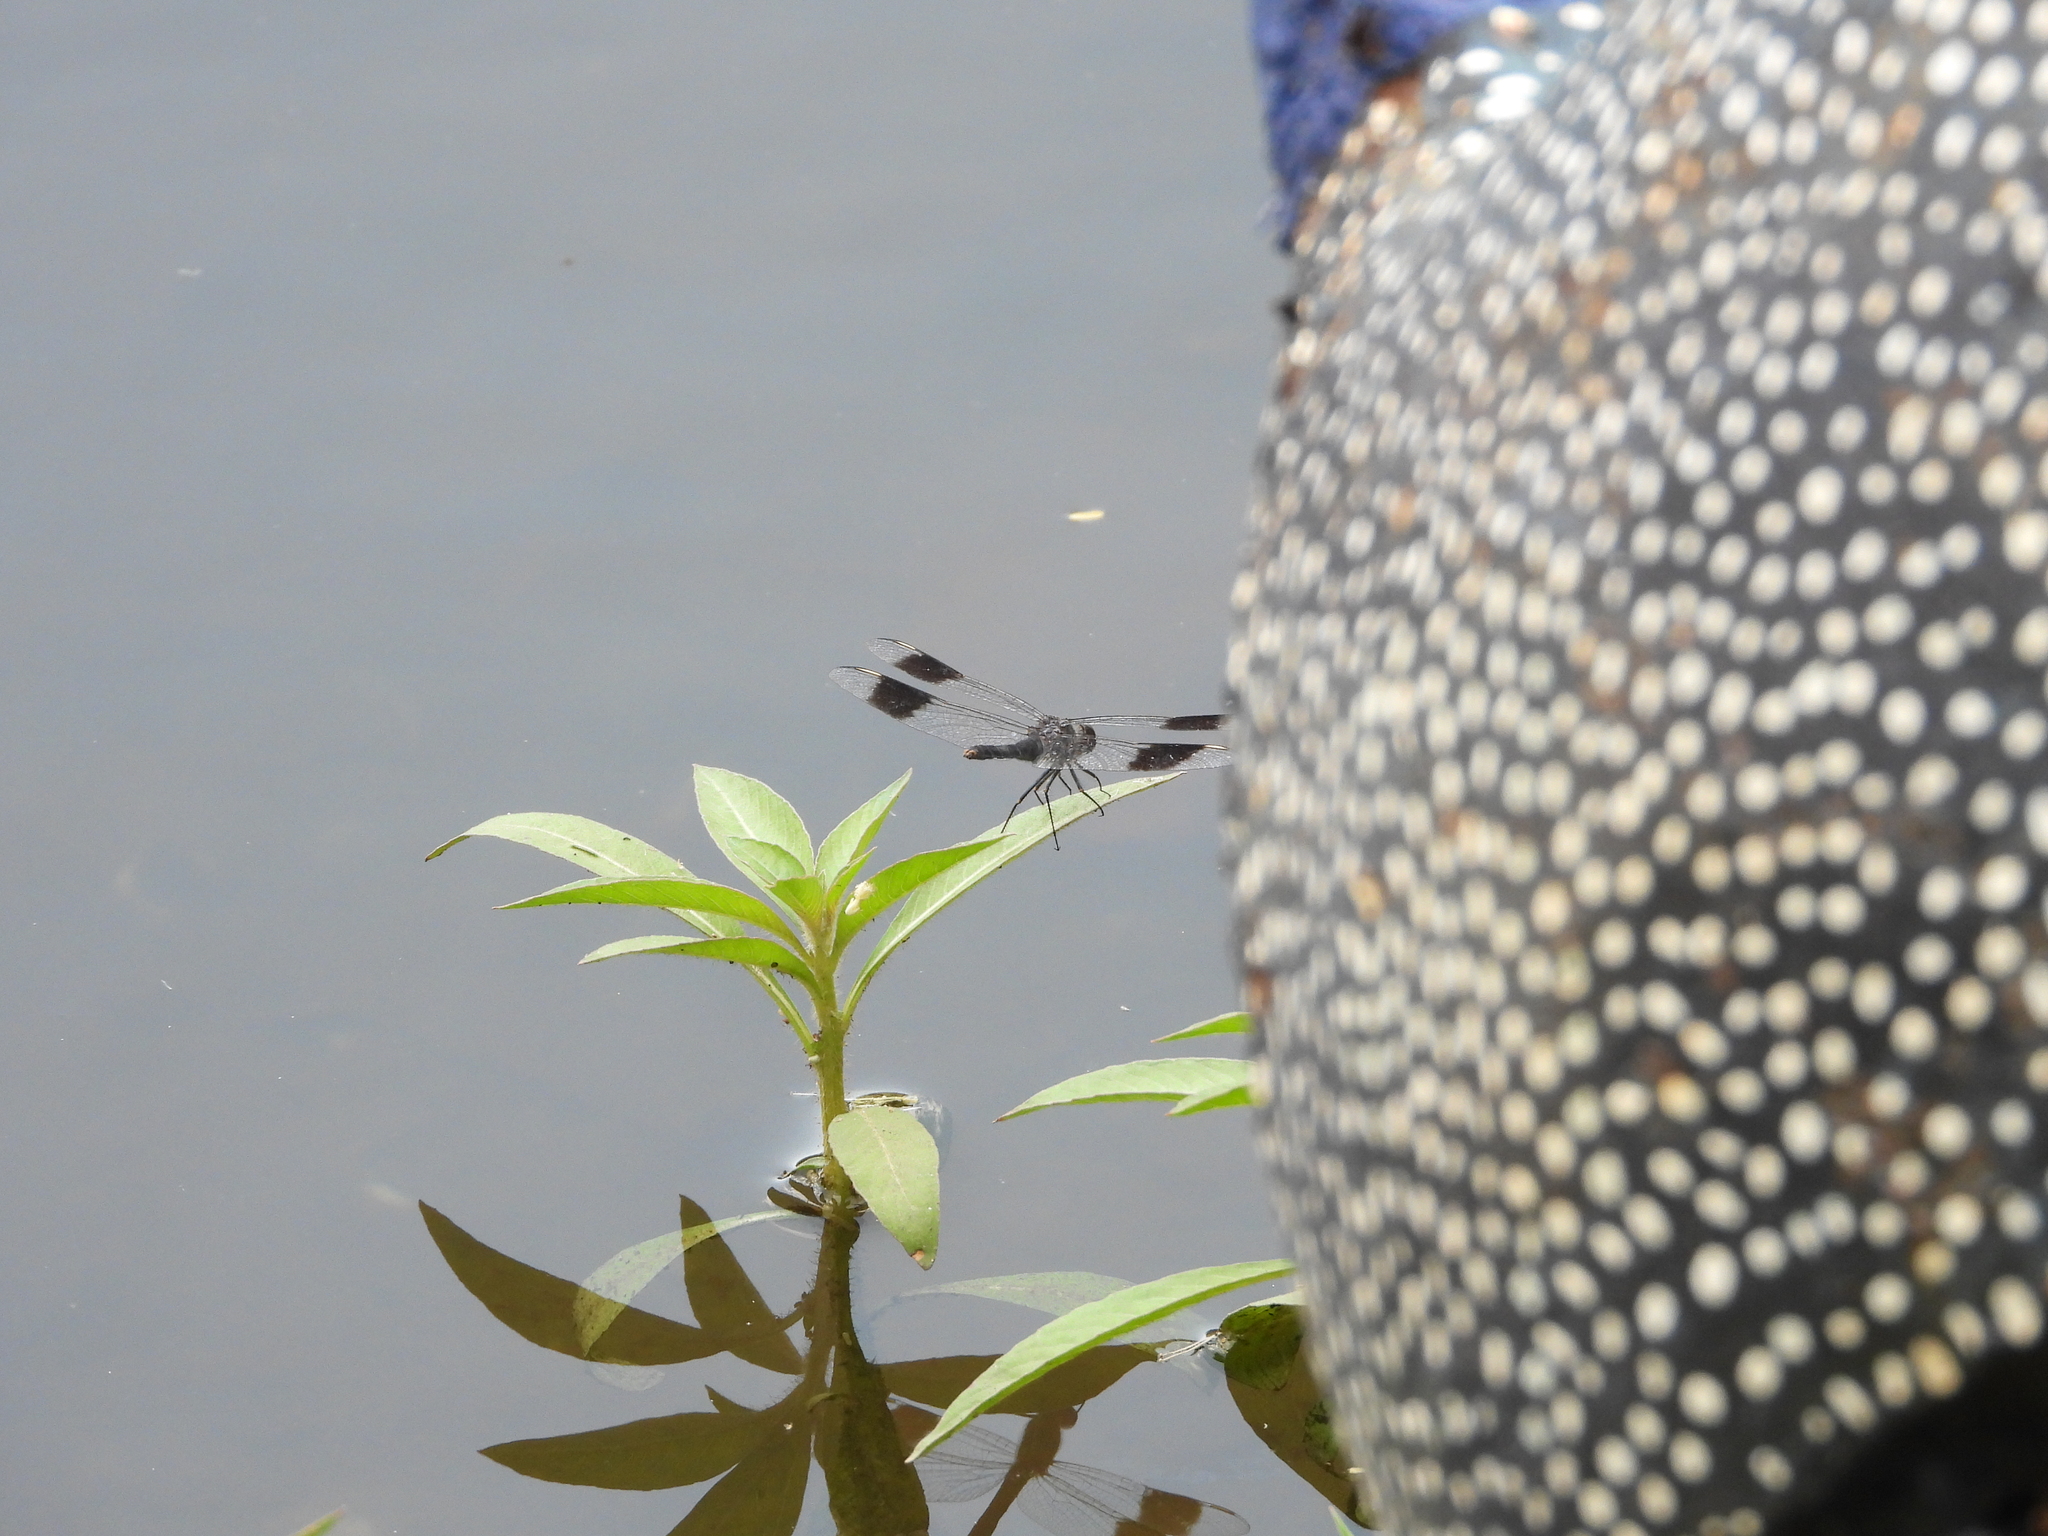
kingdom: Animalia
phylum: Arthropoda
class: Insecta
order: Odonata
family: Libellulidae
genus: Brachythemis
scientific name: Brachythemis leucosticta
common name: Banded groundling
